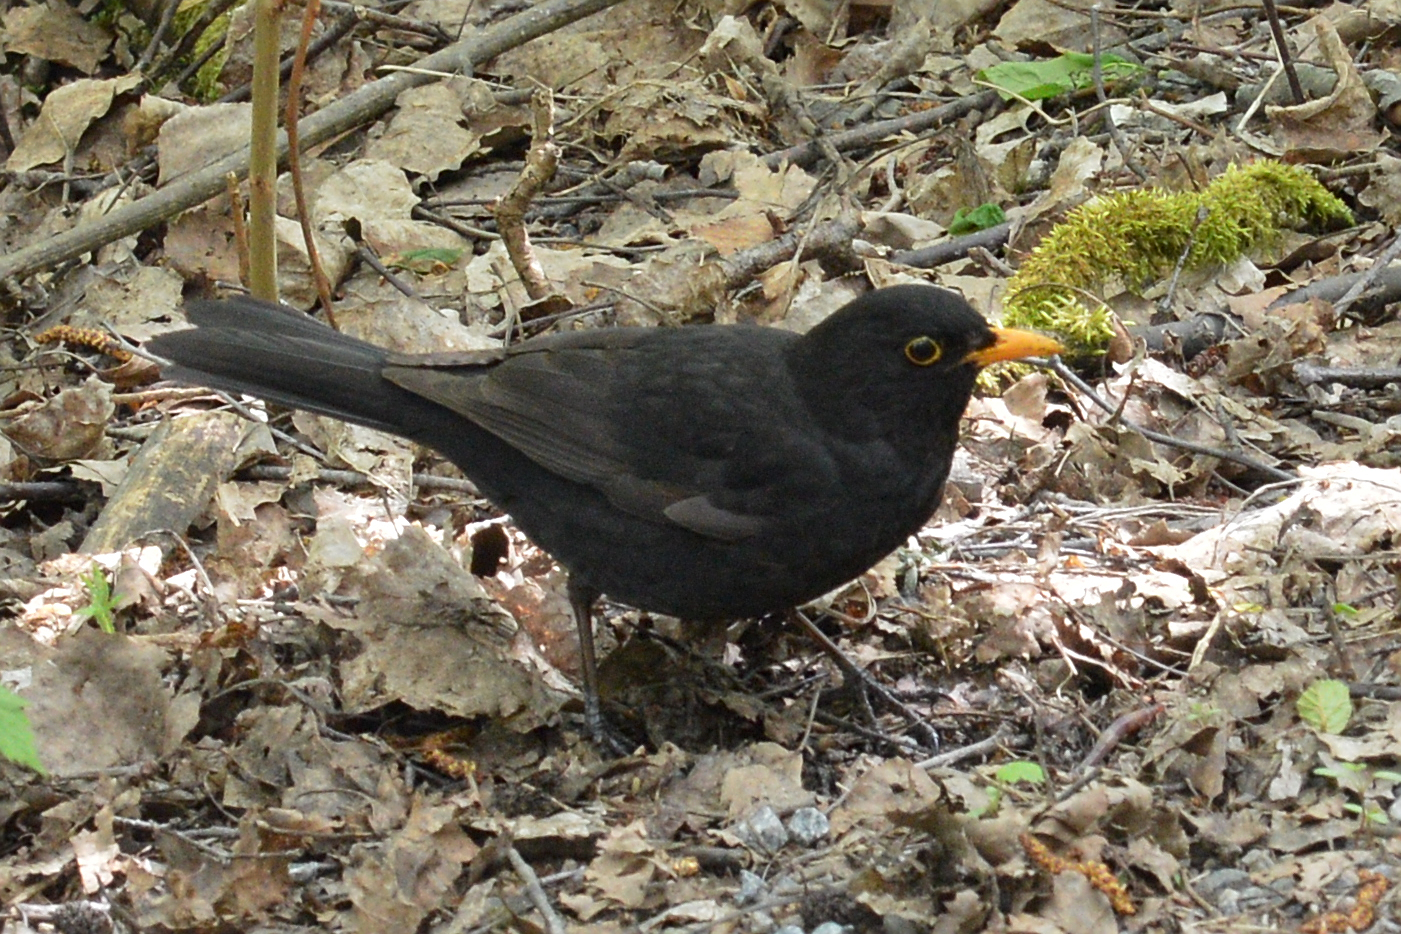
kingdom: Animalia
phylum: Chordata
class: Aves
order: Passeriformes
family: Turdidae
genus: Turdus
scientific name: Turdus merula
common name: Common blackbird
